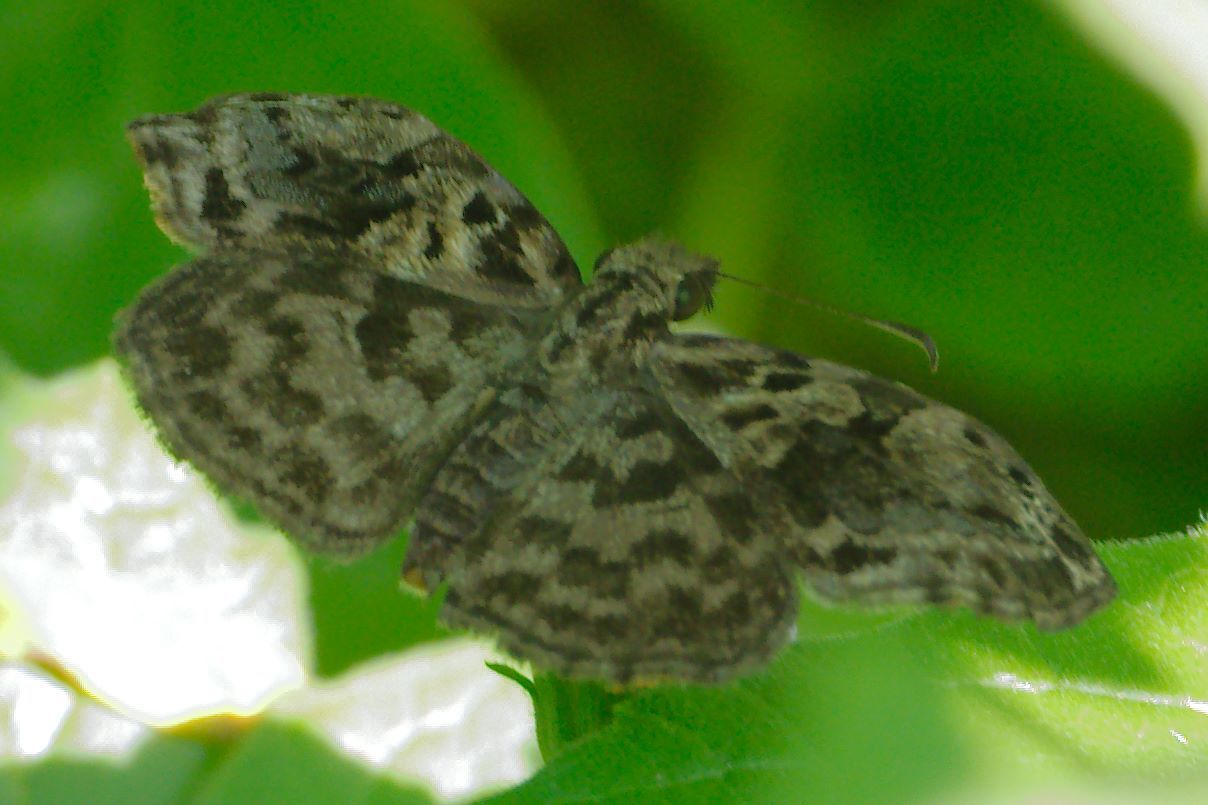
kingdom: Animalia
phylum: Arthropoda
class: Insecta
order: Lepidoptera
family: Hesperiidae
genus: Gorgythion
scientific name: Gorgythion begga
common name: Variegated skipper
